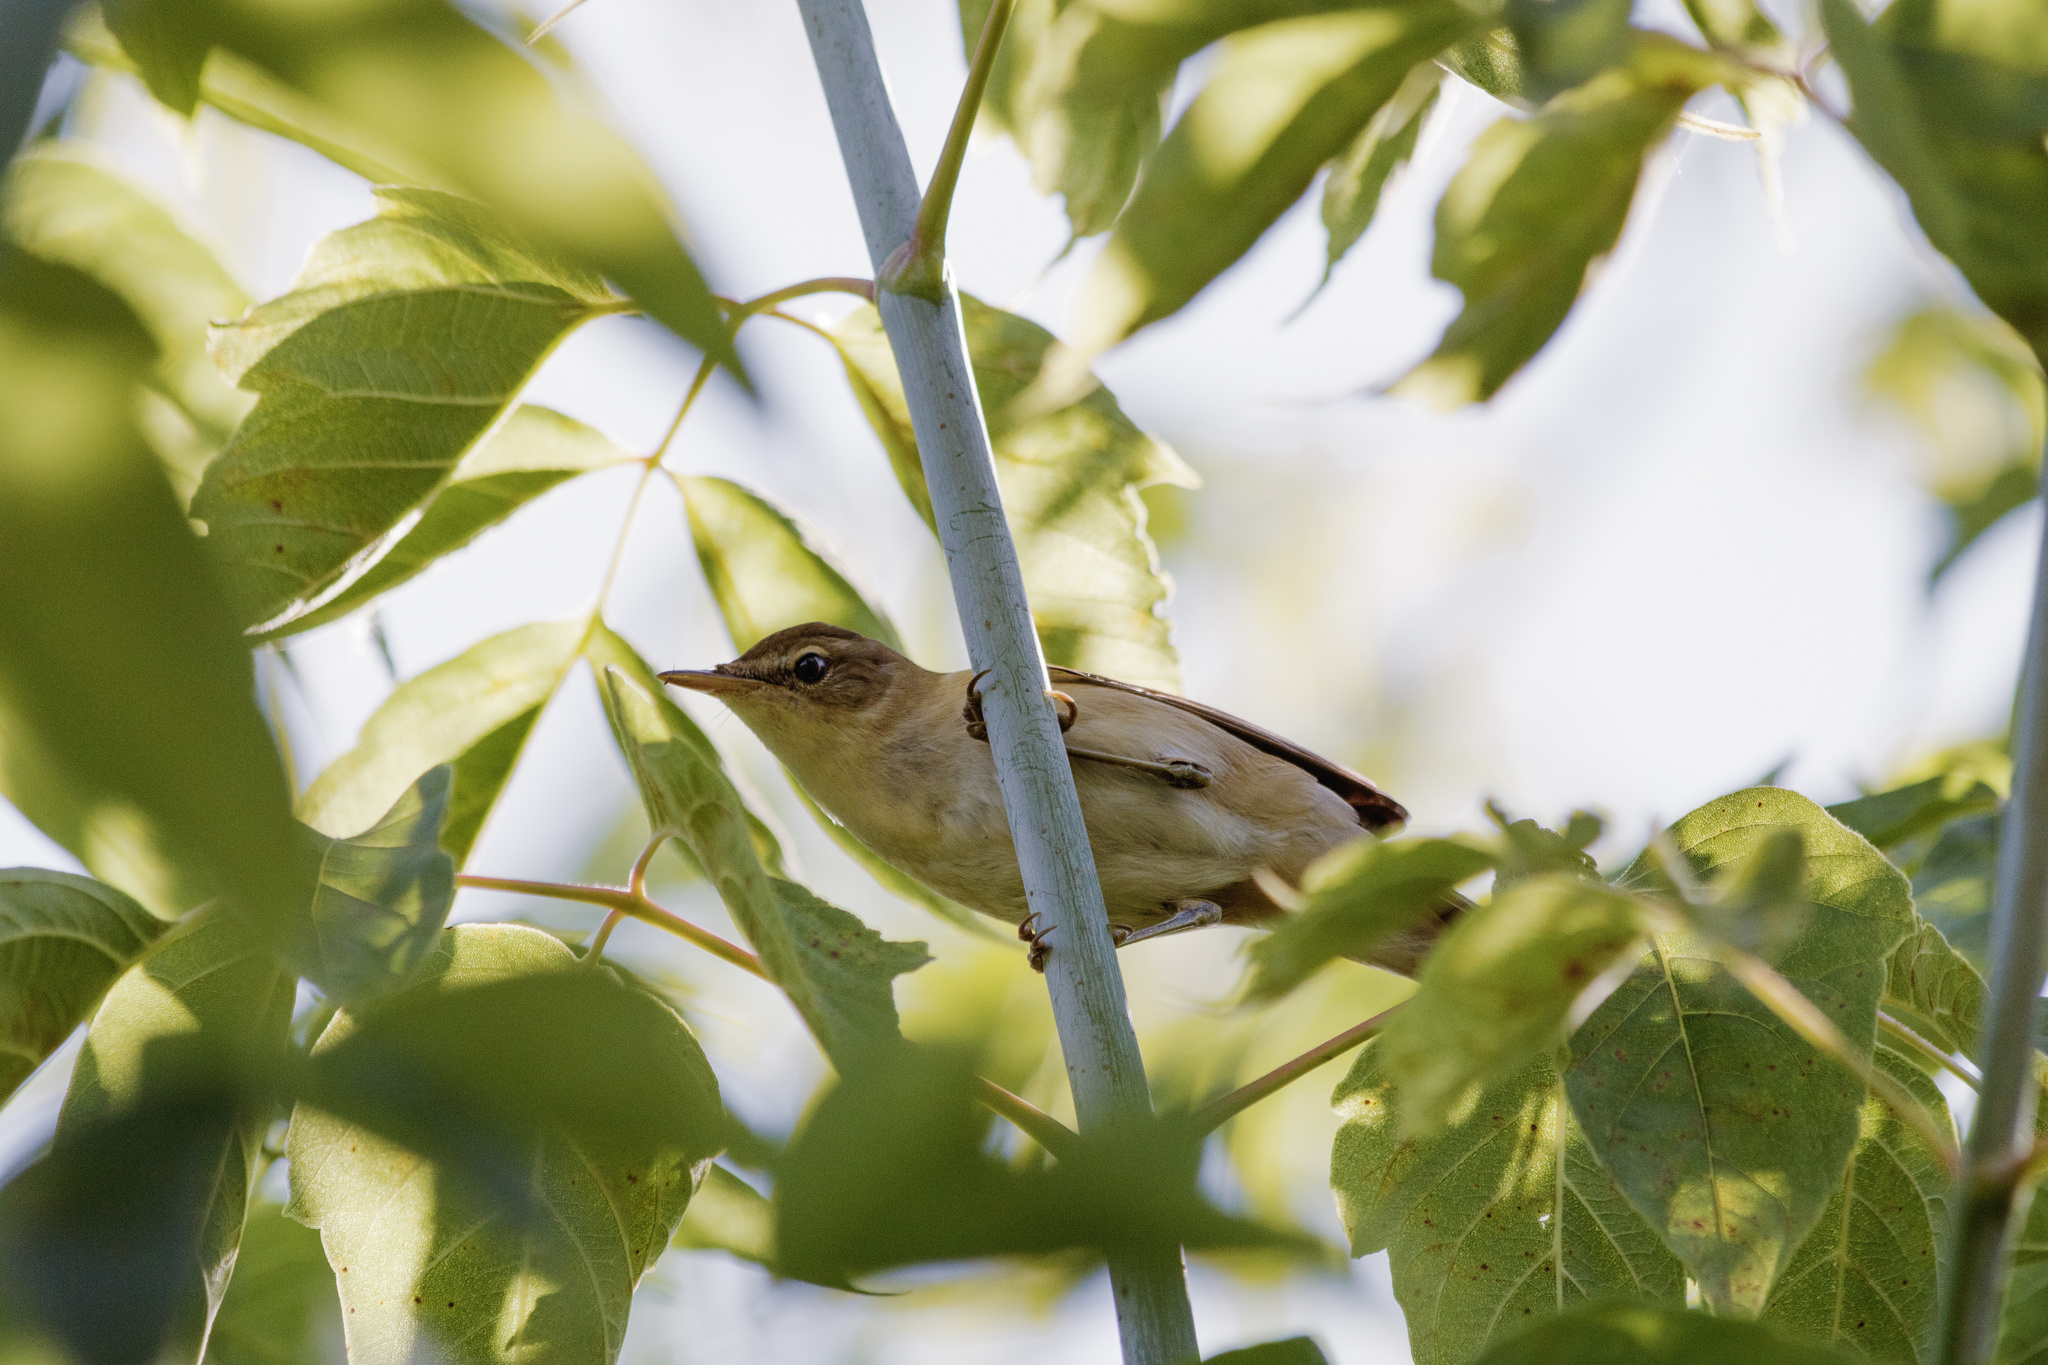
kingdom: Animalia
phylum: Chordata
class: Aves
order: Passeriformes
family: Acrocephalidae
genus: Acrocephalus
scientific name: Acrocephalus dumetorum
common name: Blyth's reed warbler
